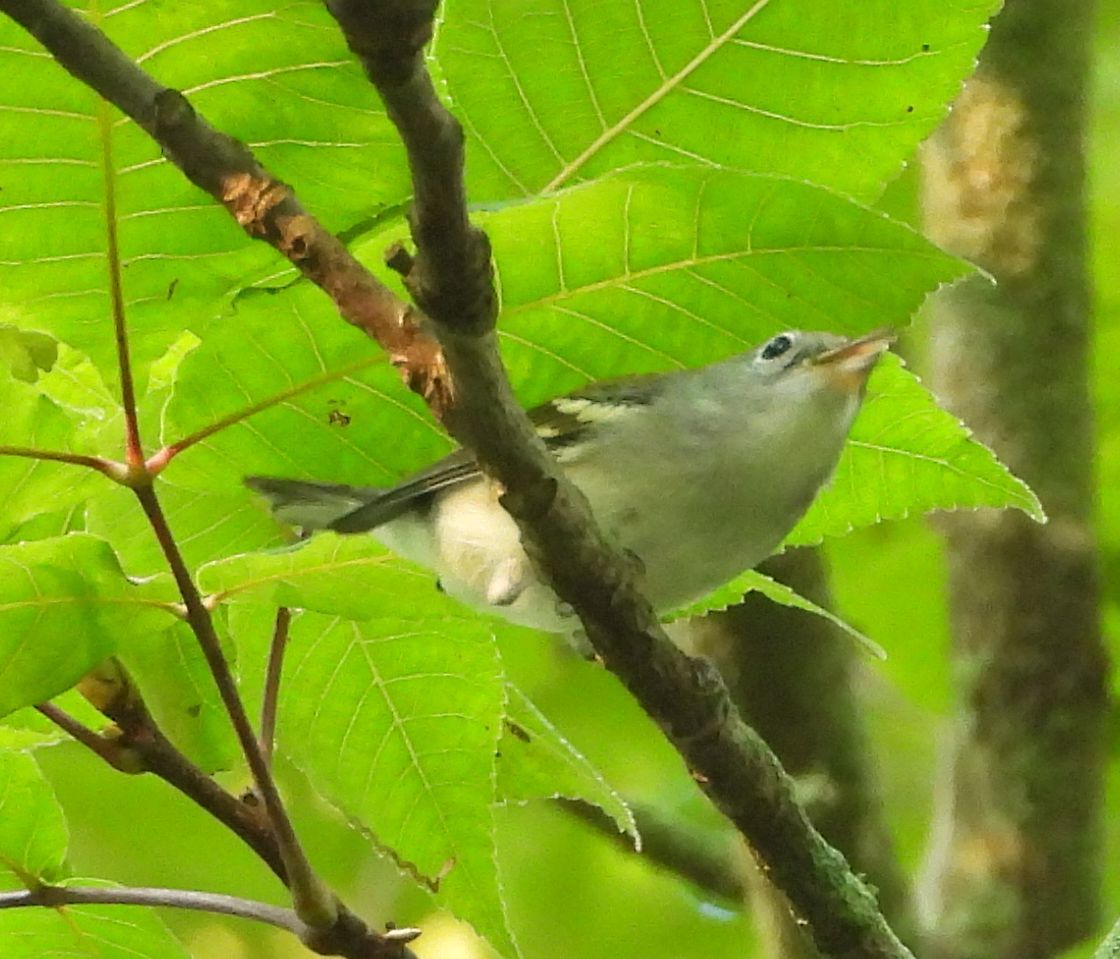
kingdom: Animalia
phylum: Chordata
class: Aves
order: Passeriformes
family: Parulidae
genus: Setophaga
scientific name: Setophaga pensylvanica
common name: Chestnut-sided warbler
